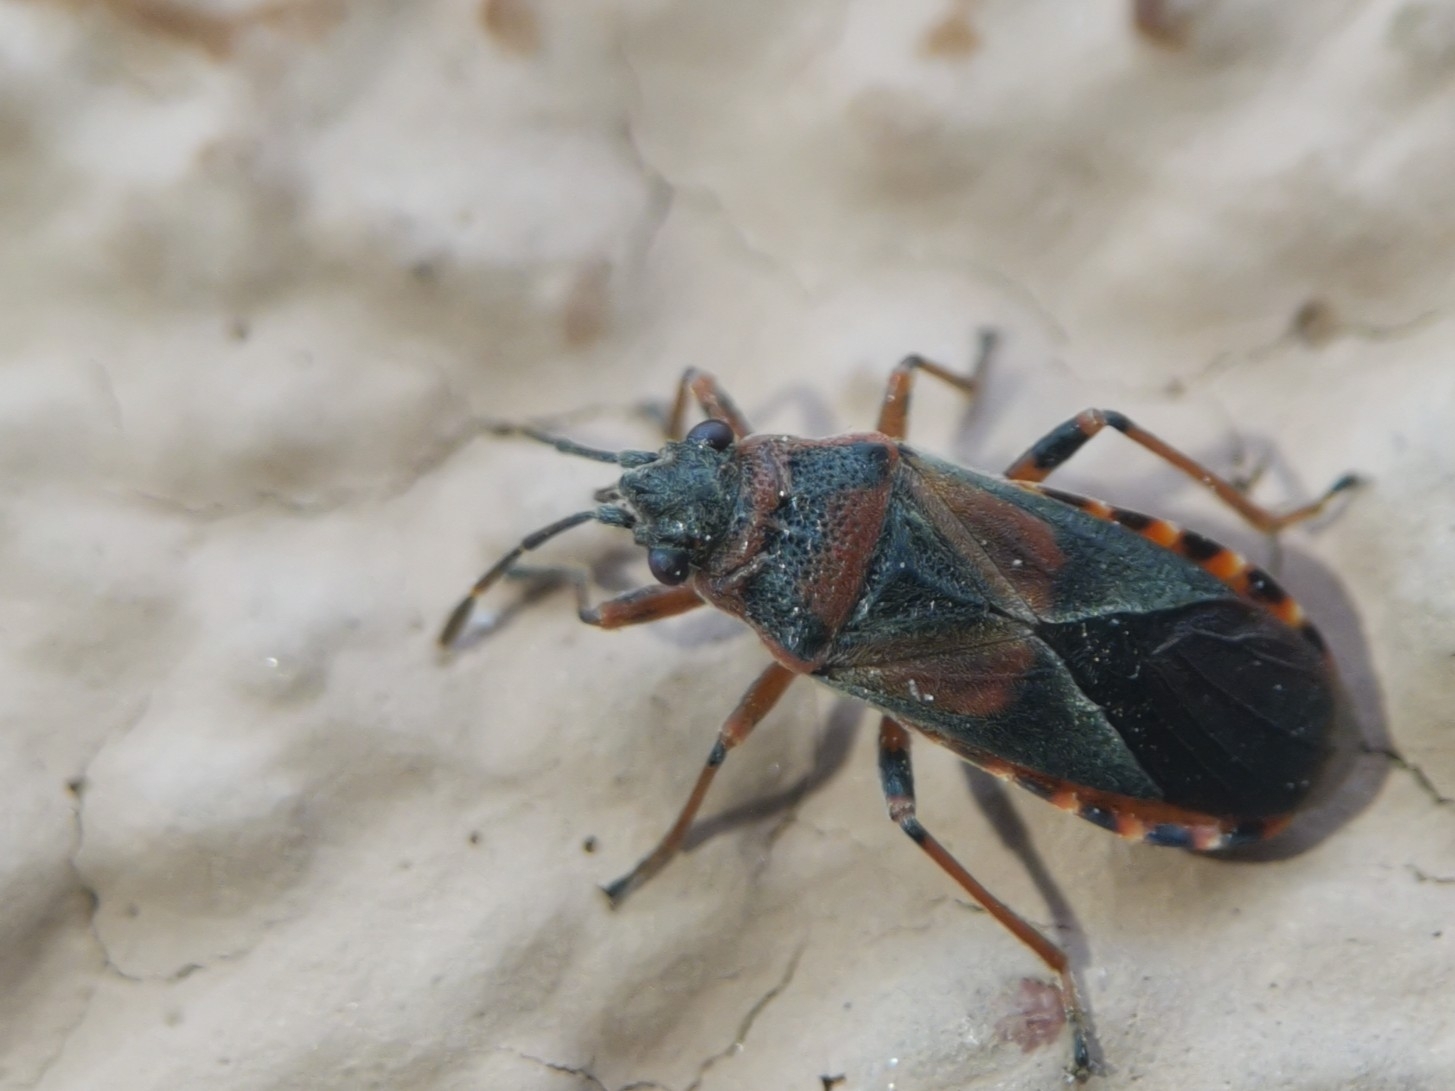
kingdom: Animalia
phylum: Arthropoda
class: Insecta
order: Hemiptera
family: Lygaeidae
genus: Arocatus
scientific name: Arocatus melanocephalus
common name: Lygaeid bug
